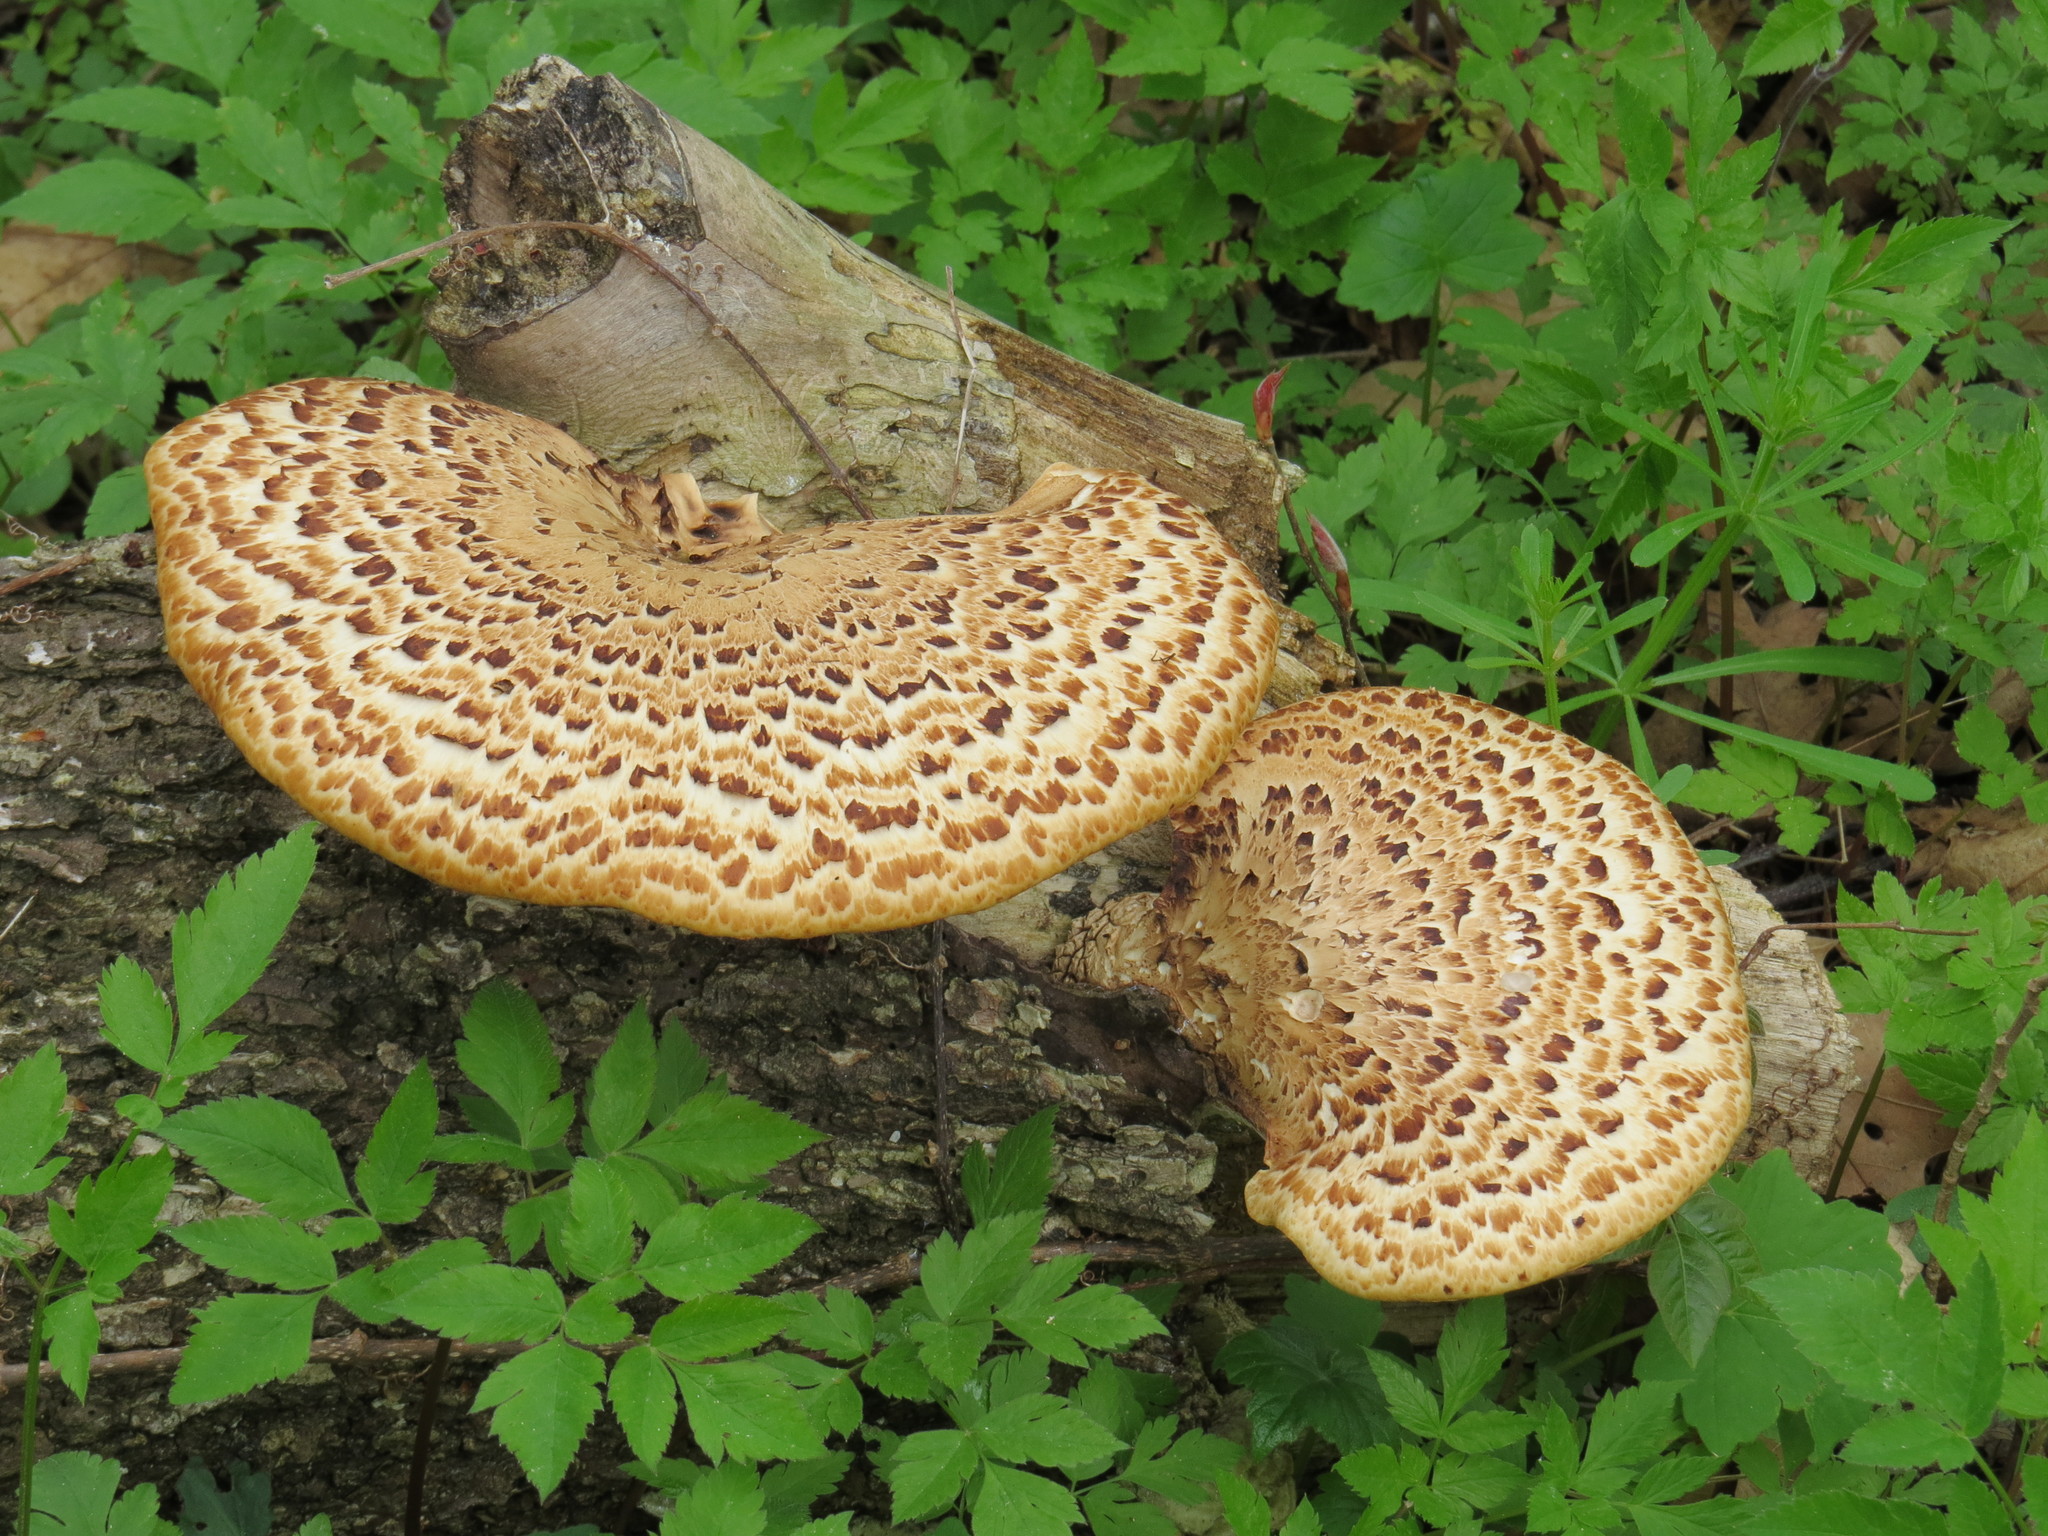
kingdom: Fungi
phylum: Basidiomycota
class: Agaricomycetes
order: Polyporales
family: Polyporaceae
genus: Cerioporus
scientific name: Cerioporus squamosus
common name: Dryad's saddle
